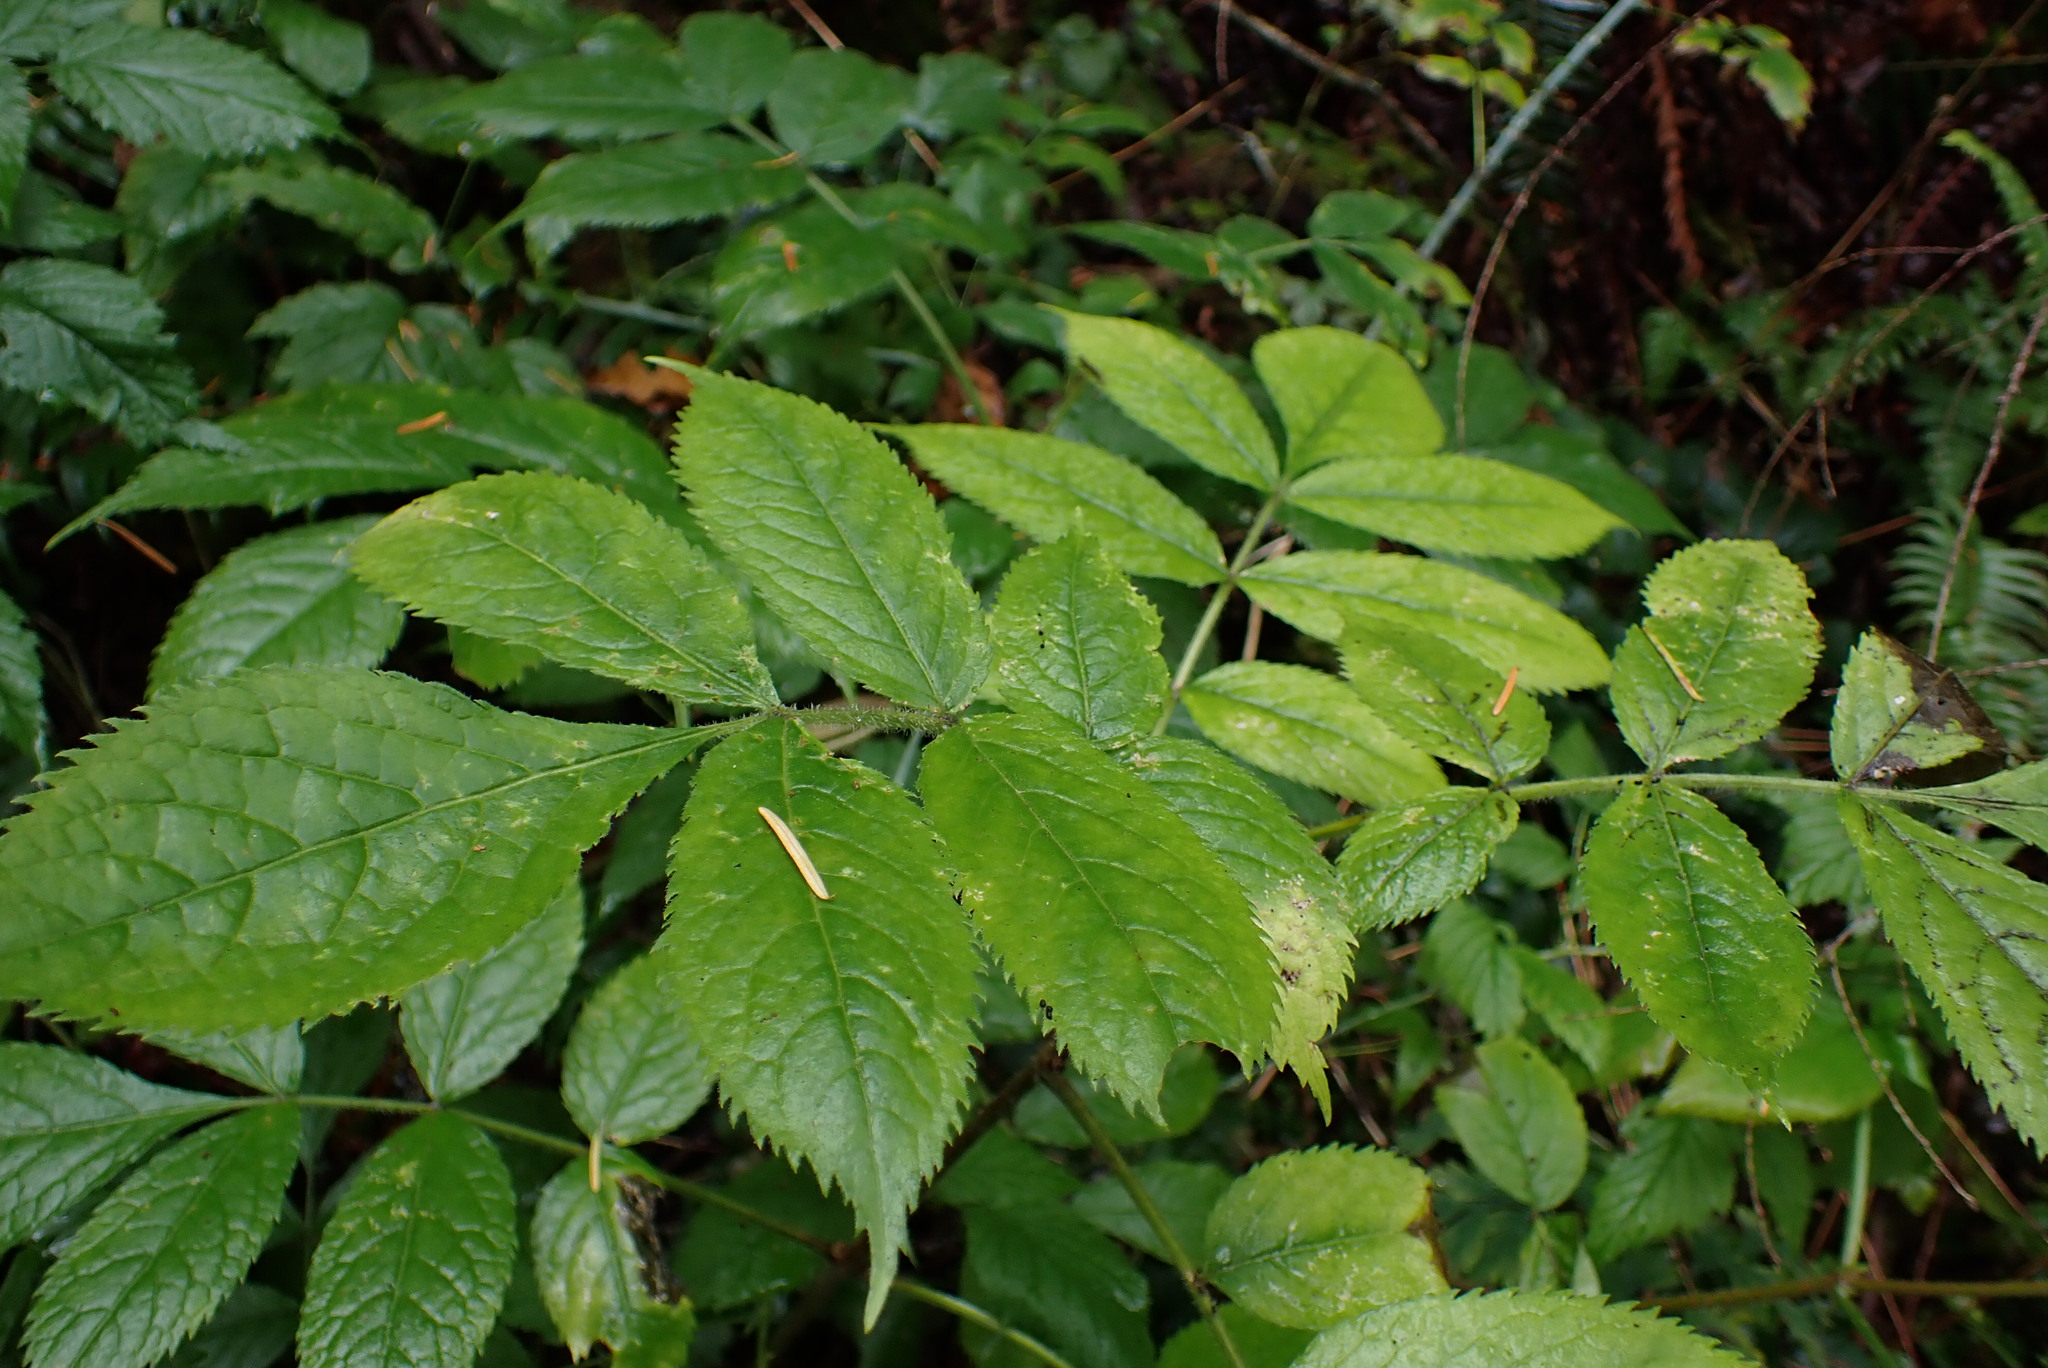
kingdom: Plantae
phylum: Tracheophyta
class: Magnoliopsida
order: Dipsacales
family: Viburnaceae
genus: Sambucus
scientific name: Sambucus racemosa
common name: Red-berried elder
